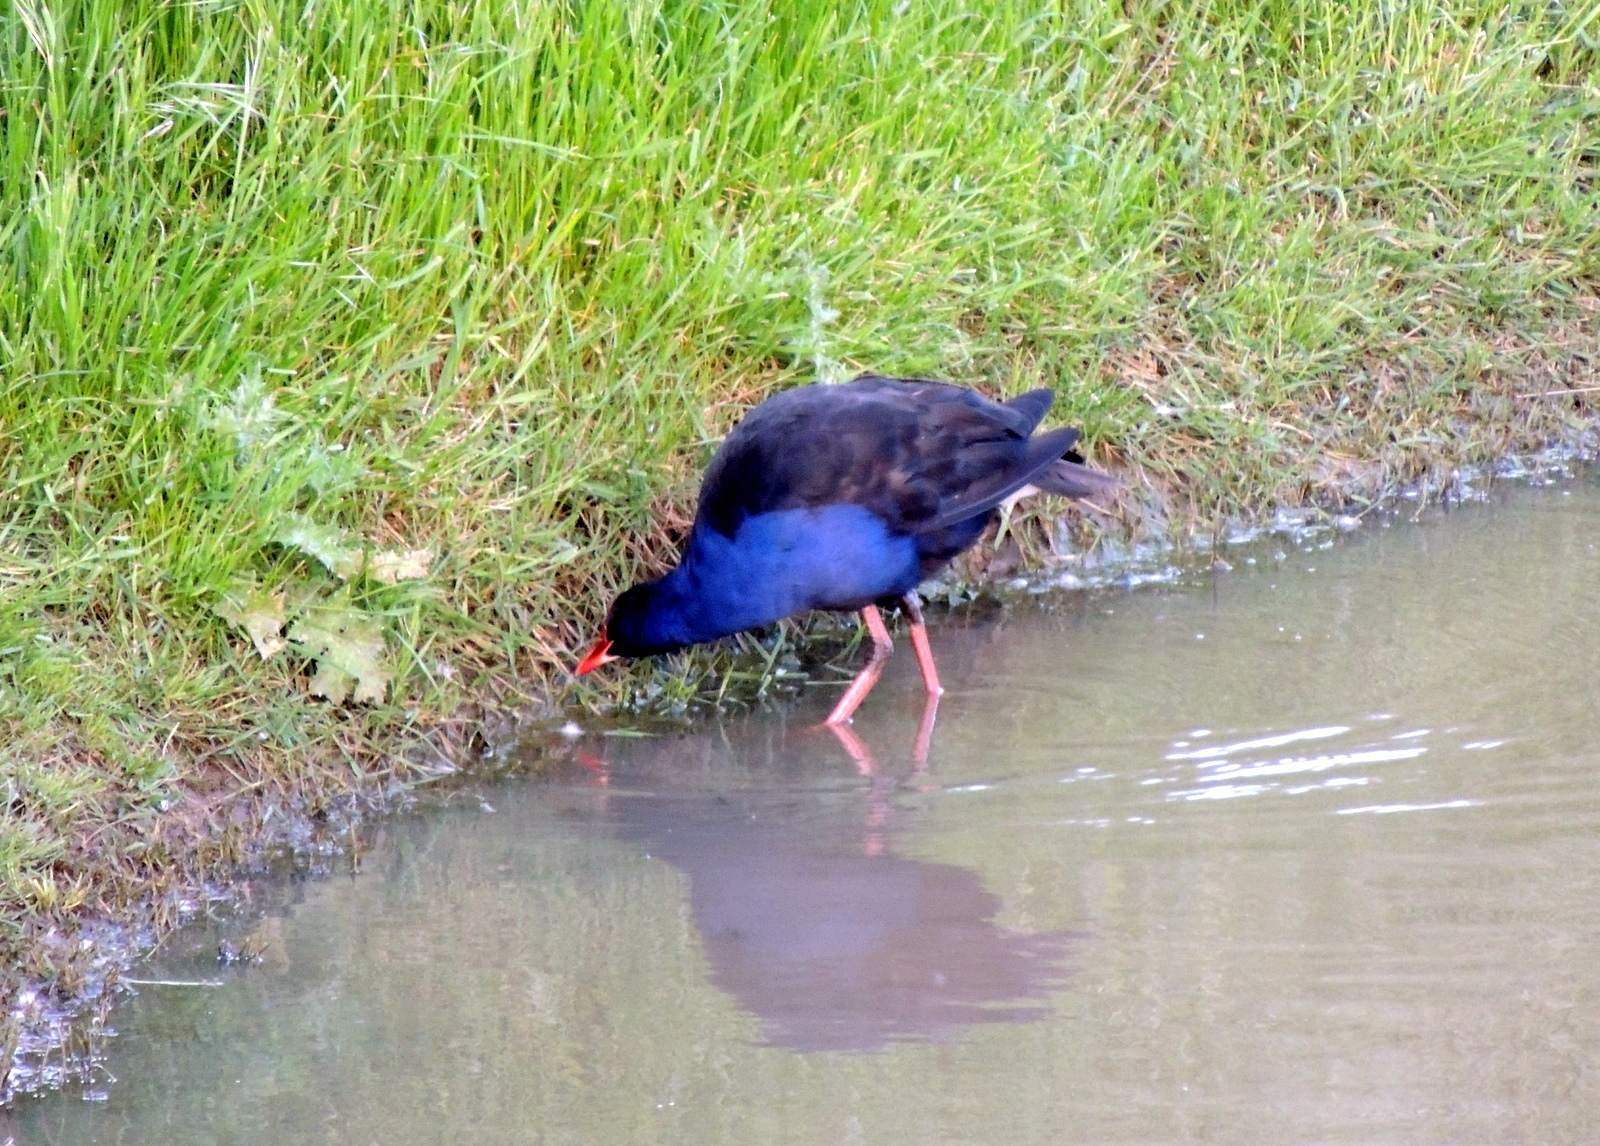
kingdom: Animalia
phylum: Chordata
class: Aves
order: Gruiformes
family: Rallidae
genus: Porphyrio
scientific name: Porphyrio melanotus
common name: Australasian swamphen
